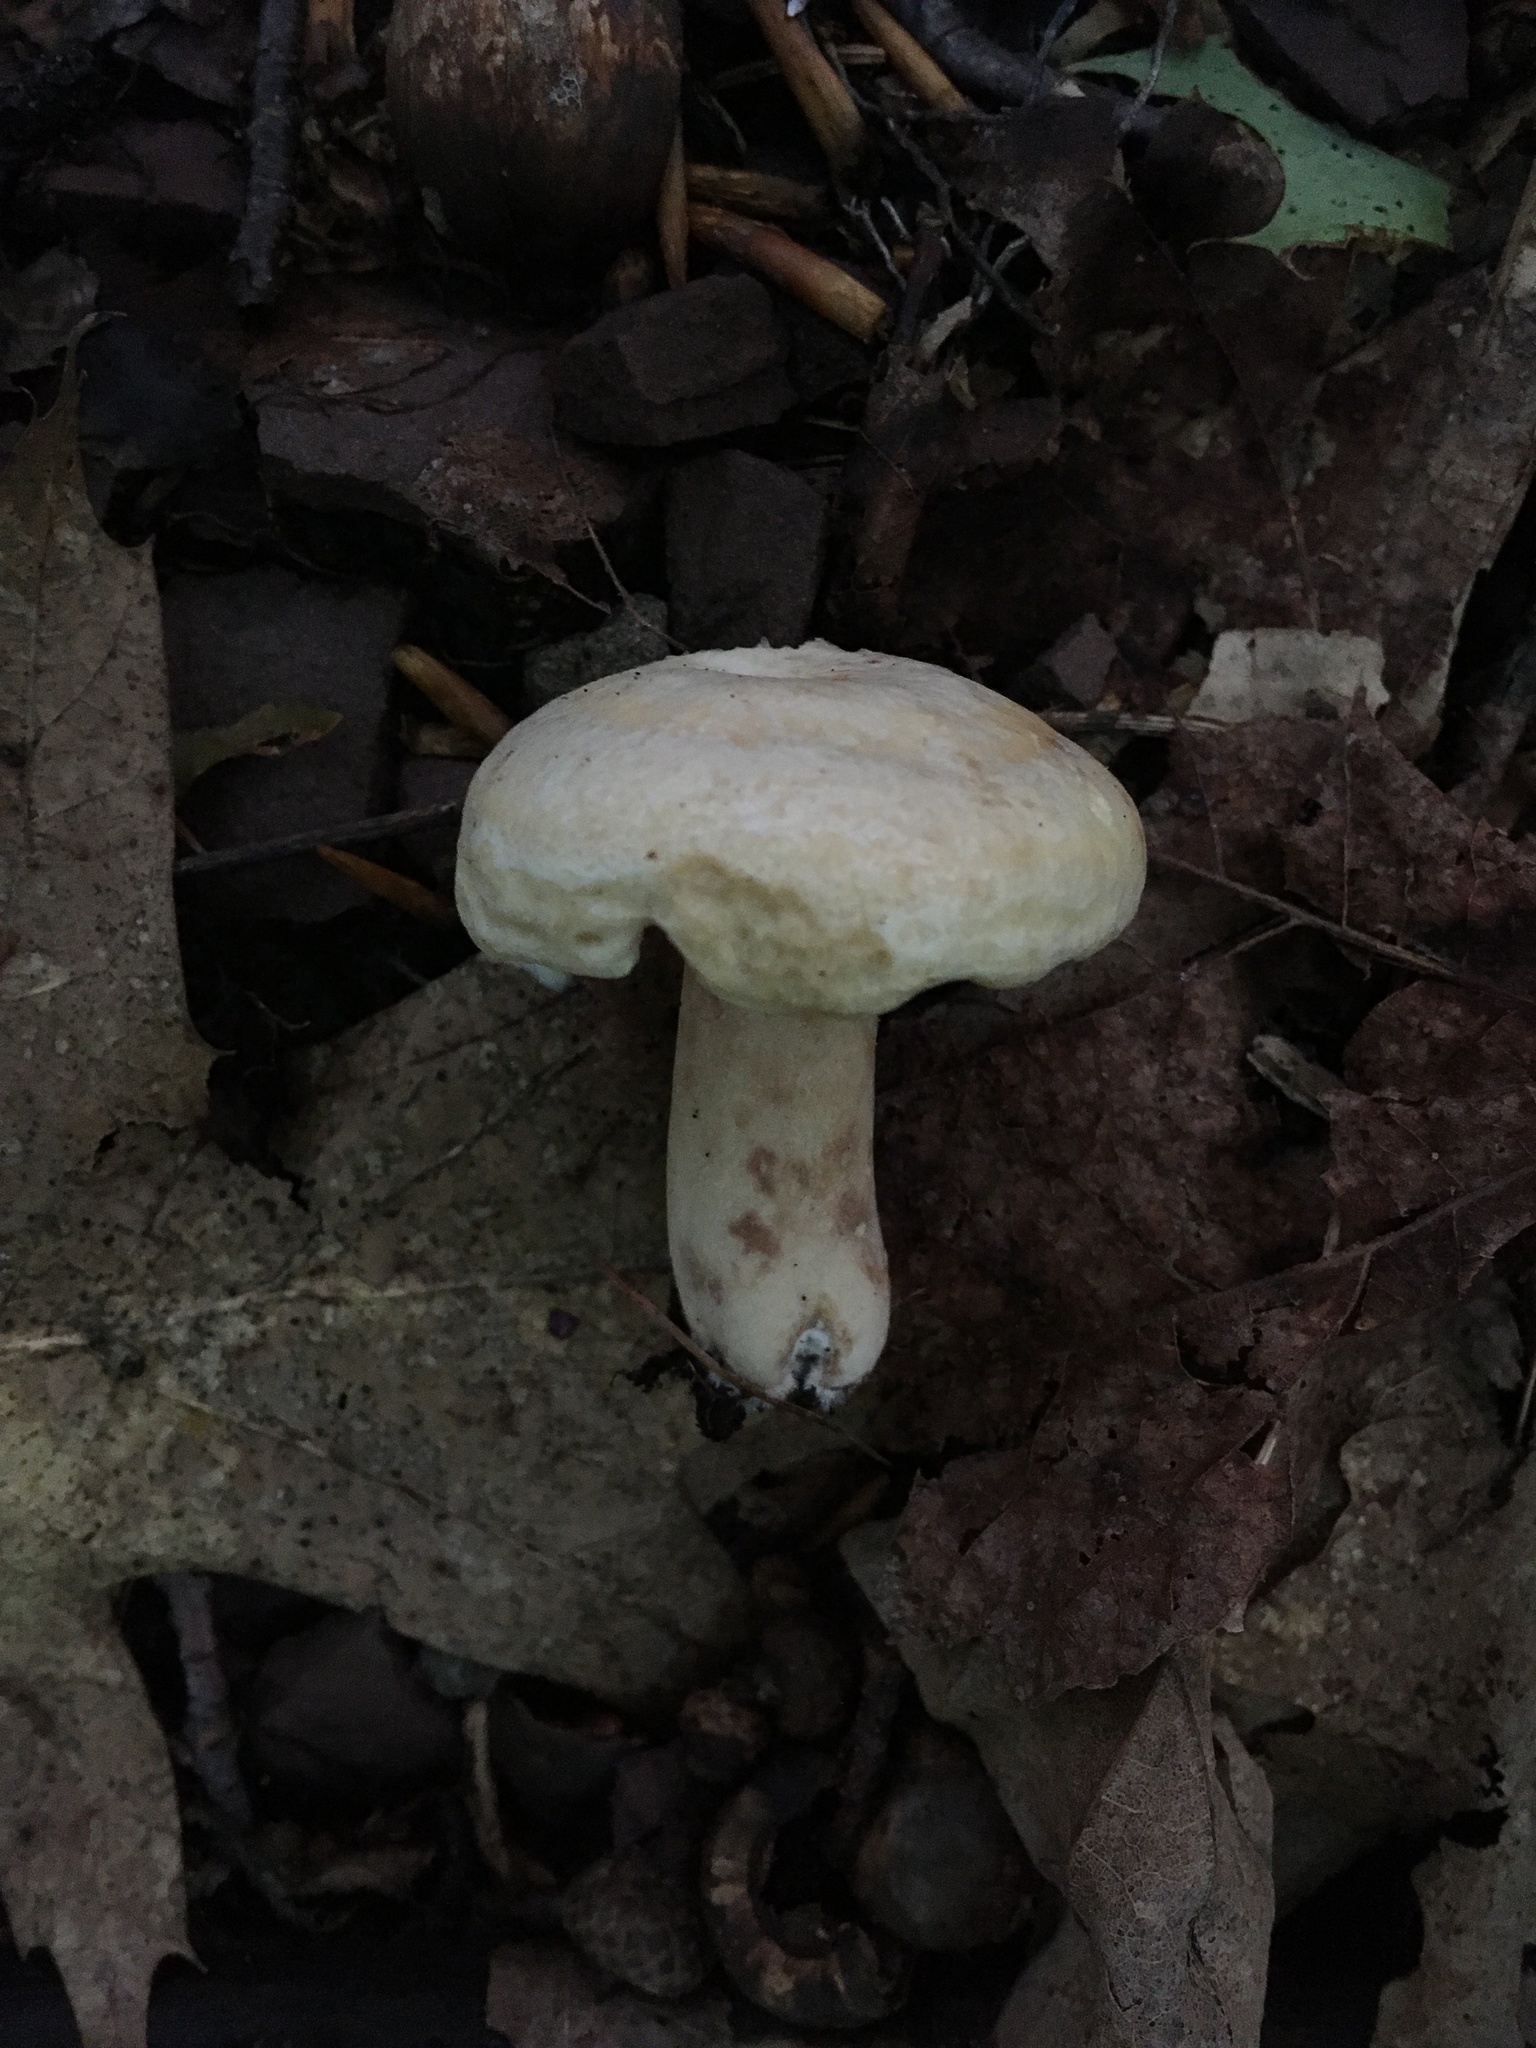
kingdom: Fungi
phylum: Basidiomycota
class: Agaricomycetes
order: Russulales
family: Russulaceae
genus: Lactarius
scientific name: Lactarius chrysorrheus
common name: Yellowdrop milkcap
